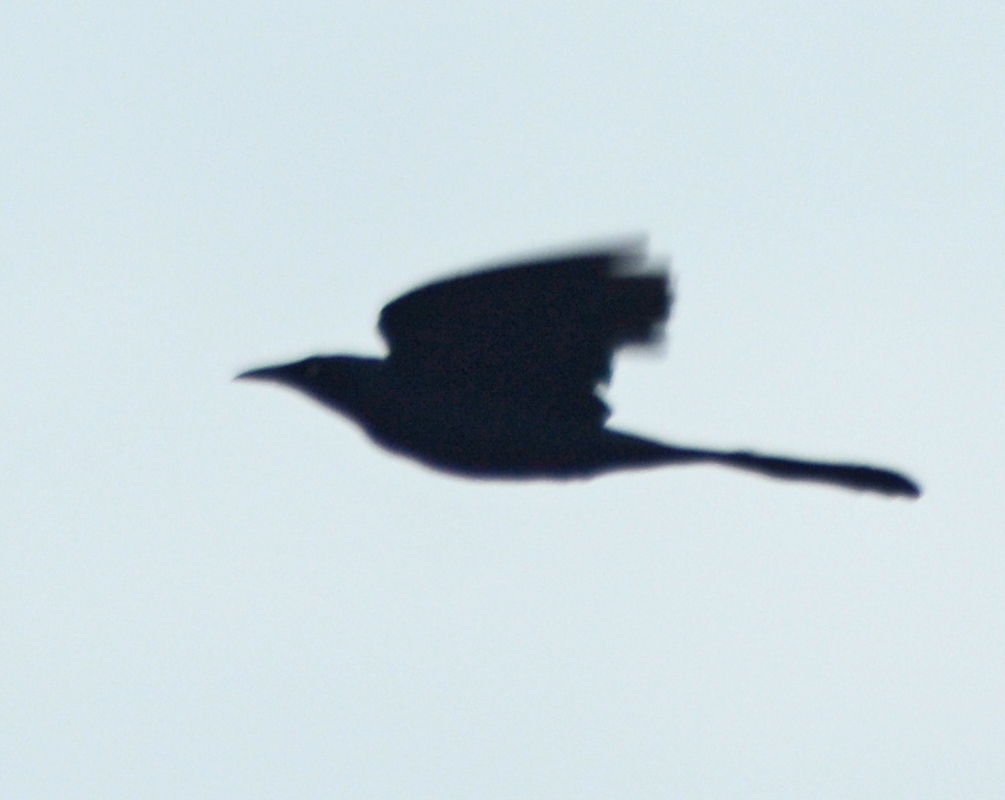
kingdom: Animalia
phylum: Chordata
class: Aves
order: Passeriformes
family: Icteridae
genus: Quiscalus
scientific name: Quiscalus mexicanus
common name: Great-tailed grackle
